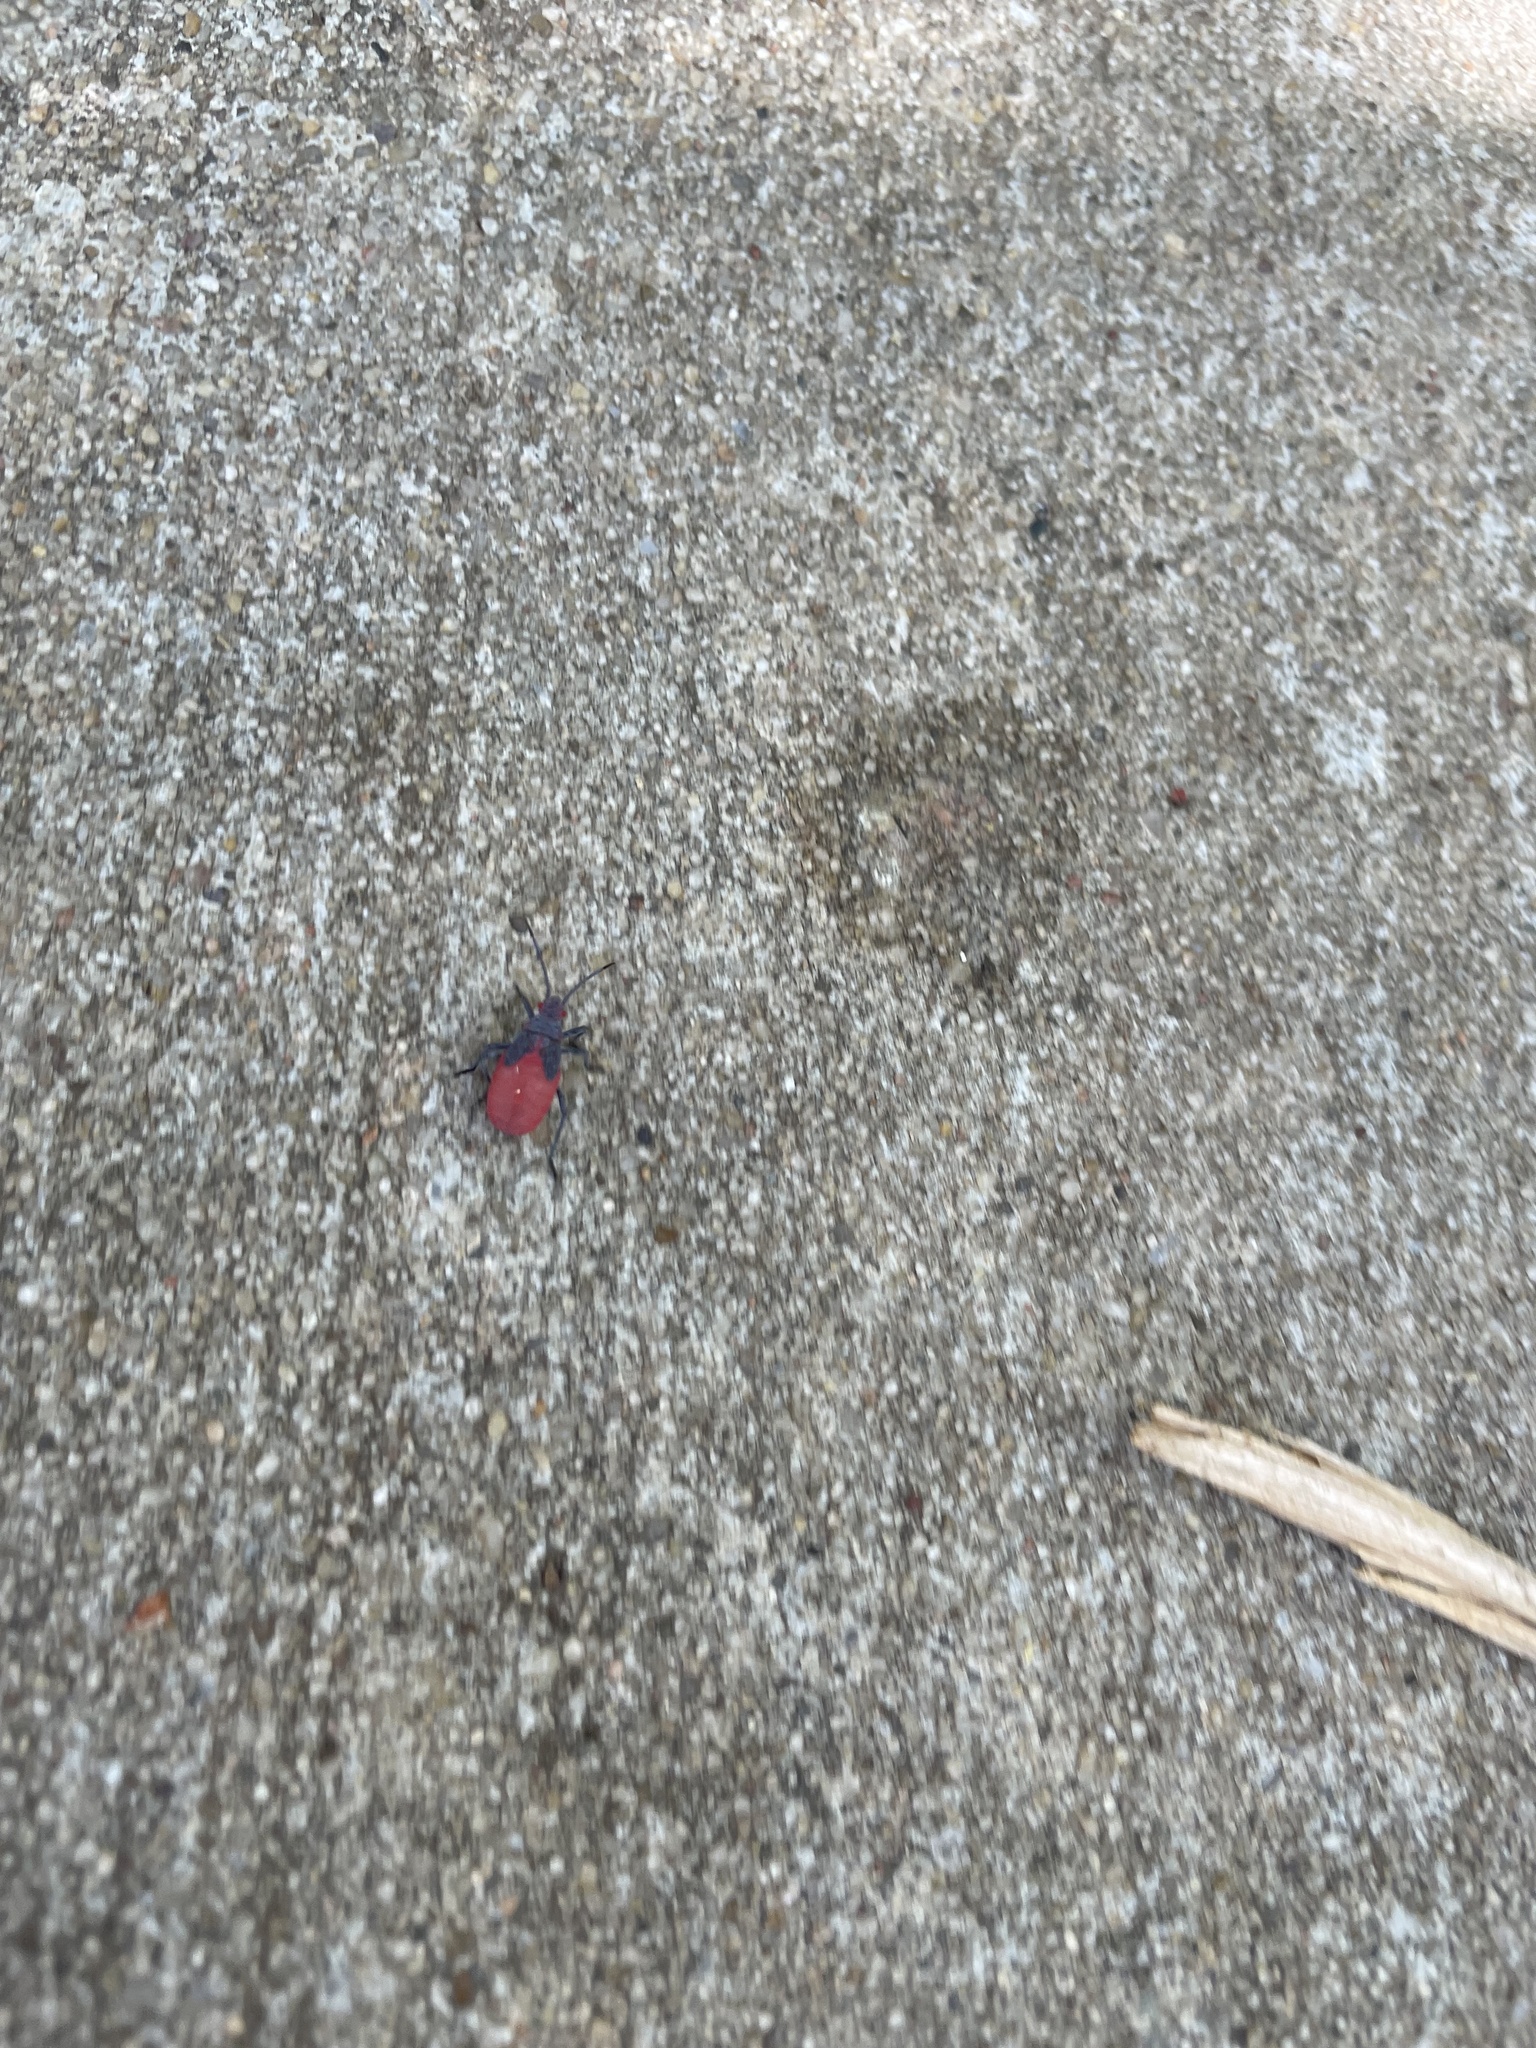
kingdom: Animalia
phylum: Arthropoda
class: Insecta
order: Hemiptera
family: Rhopalidae
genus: Jadera
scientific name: Jadera haematoloma
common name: Red-shouldered bug
